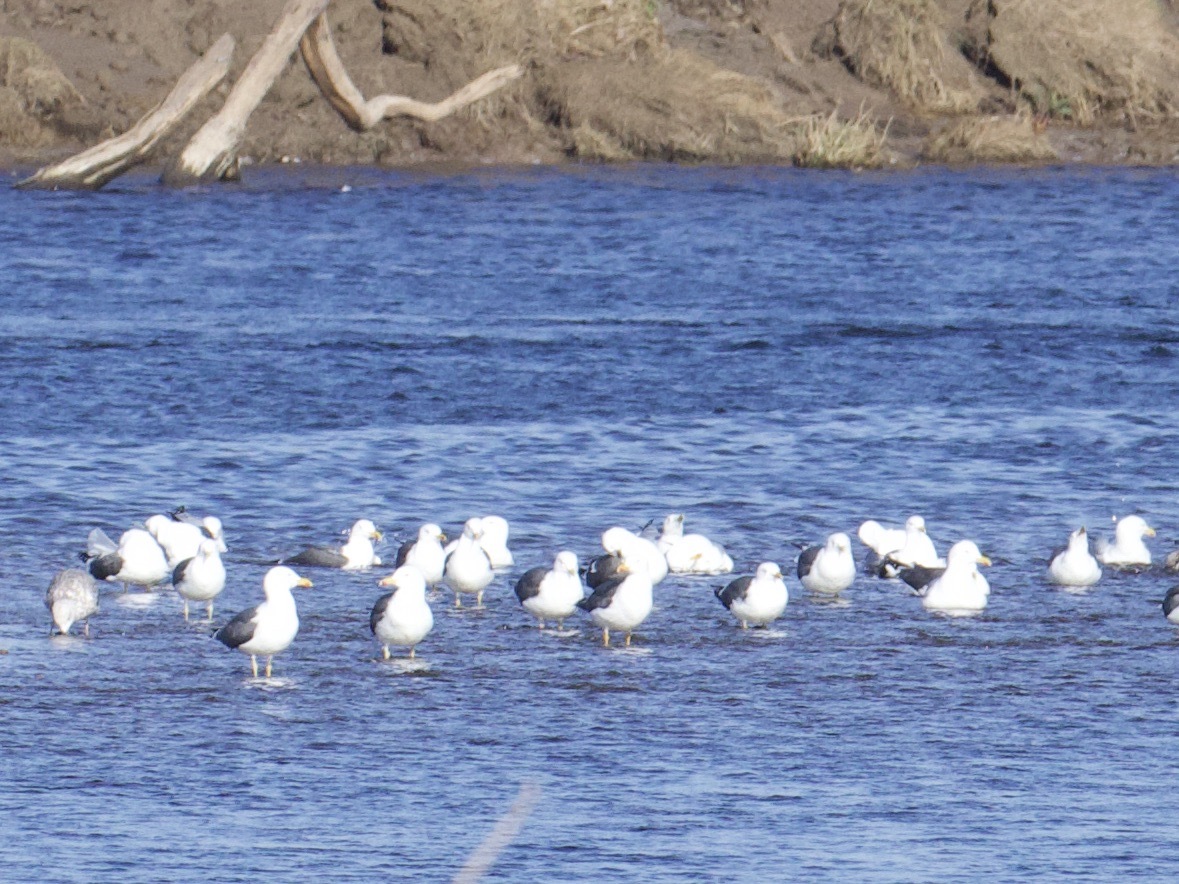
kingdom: Animalia
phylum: Chordata
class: Aves
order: Charadriiformes
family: Laridae
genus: Larus
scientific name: Larus fuscus
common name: Lesser black-backed gull
